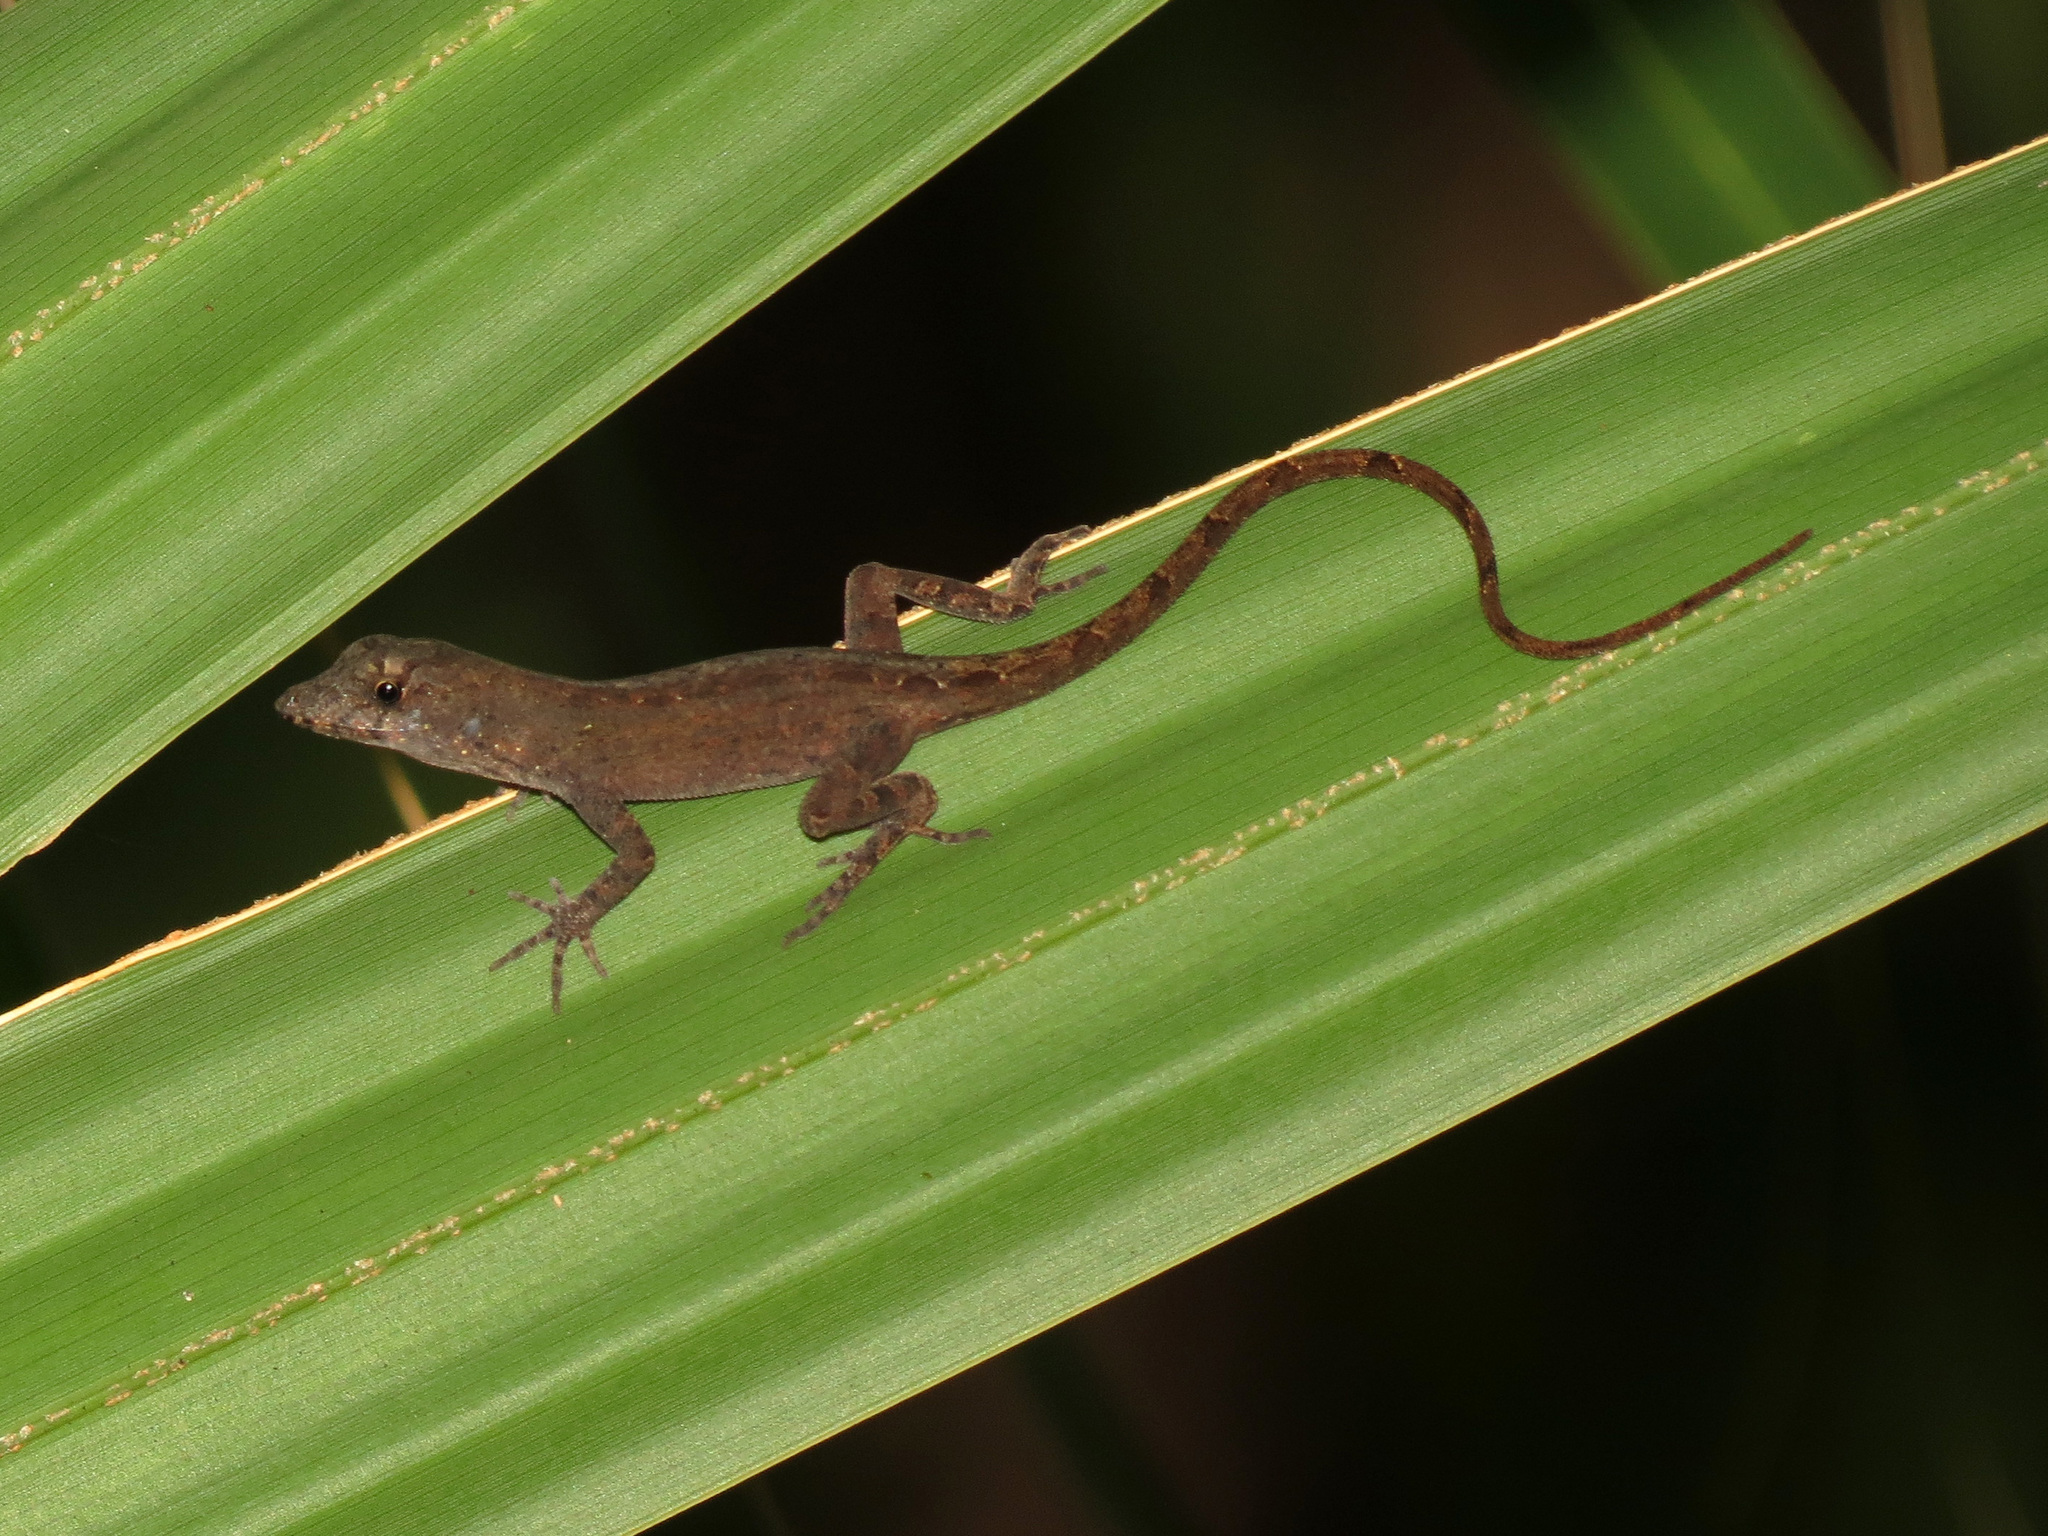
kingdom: Animalia
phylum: Chordata
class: Squamata
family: Dactyloidae
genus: Anolis
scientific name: Anolis sagrei
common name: Brown anole
